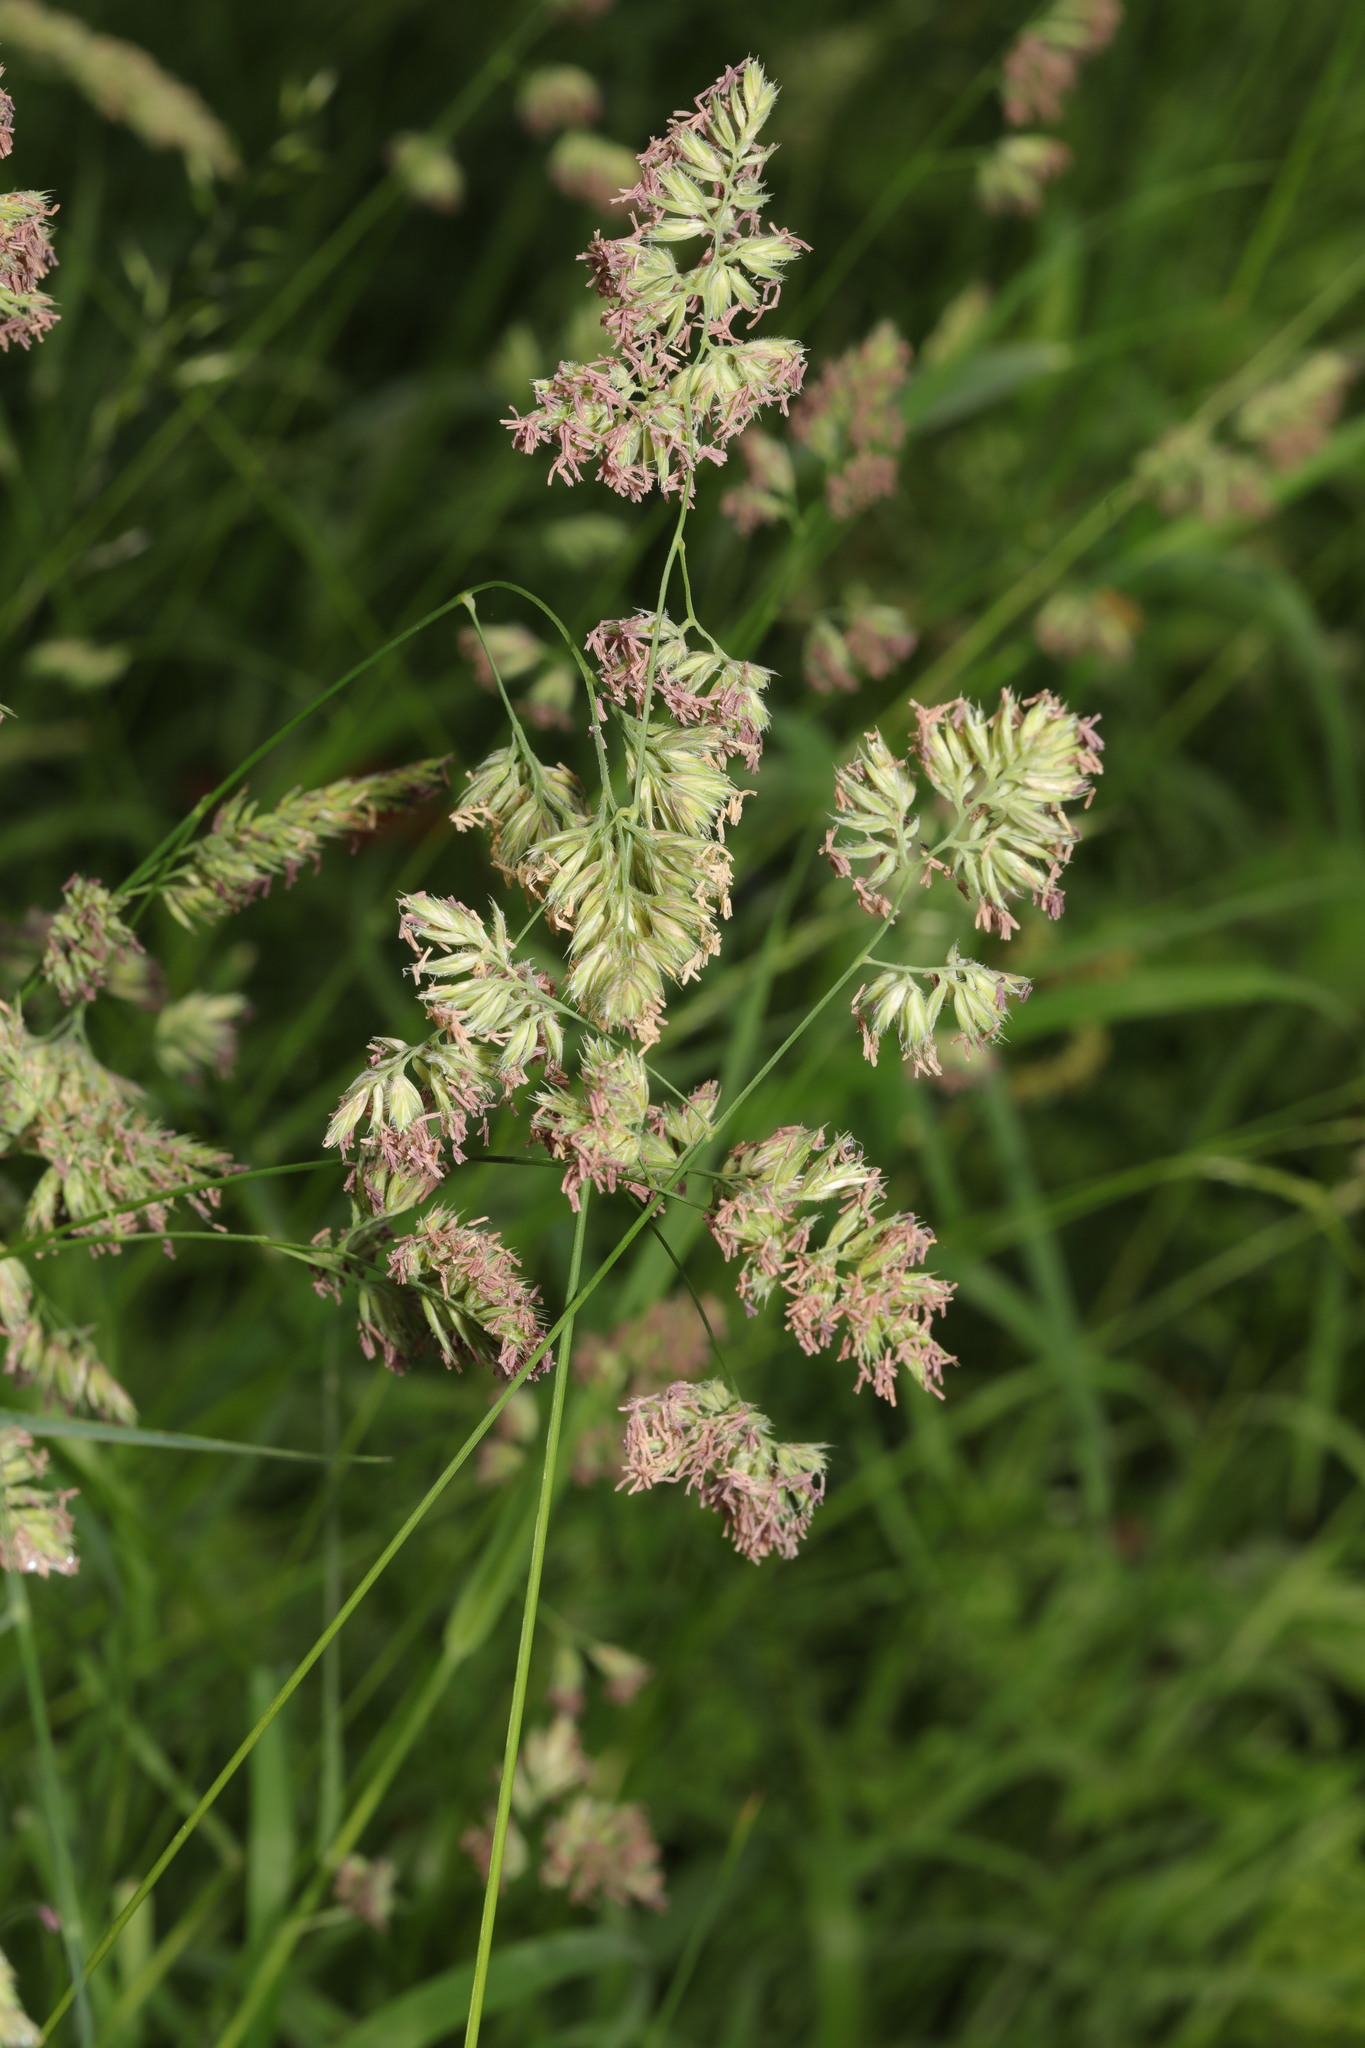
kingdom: Plantae
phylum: Tracheophyta
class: Liliopsida
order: Poales
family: Poaceae
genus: Dactylis
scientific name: Dactylis glomerata
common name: Orchardgrass
